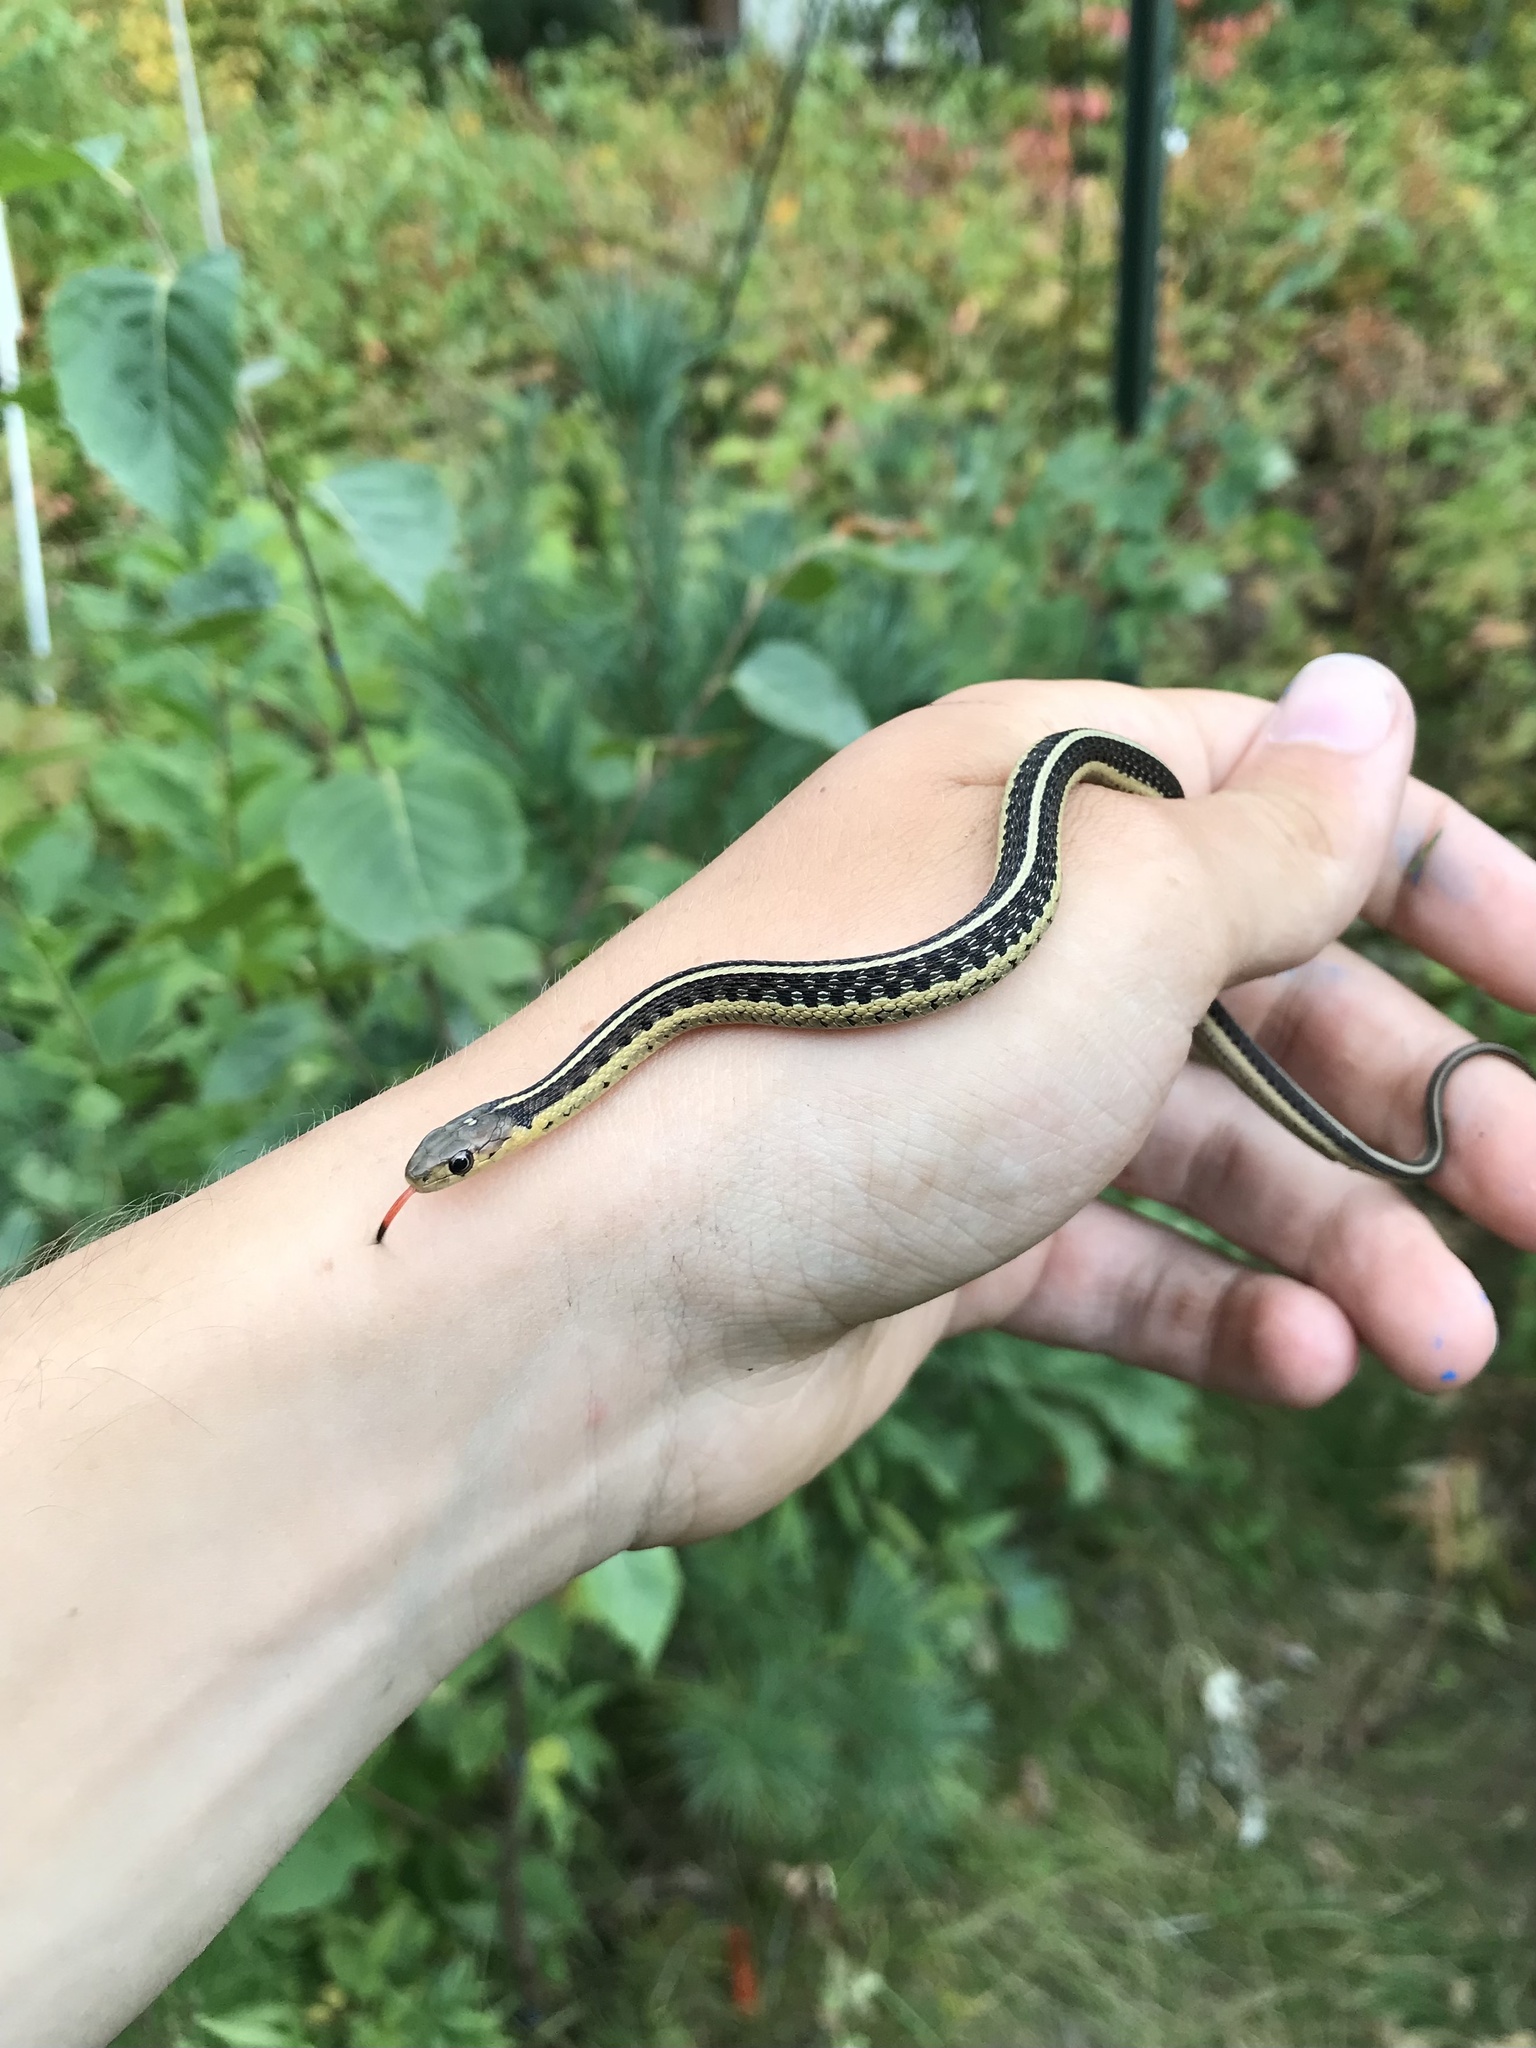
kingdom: Animalia
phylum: Chordata
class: Squamata
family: Colubridae
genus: Thamnophis
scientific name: Thamnophis sirtalis
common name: Common garter snake
